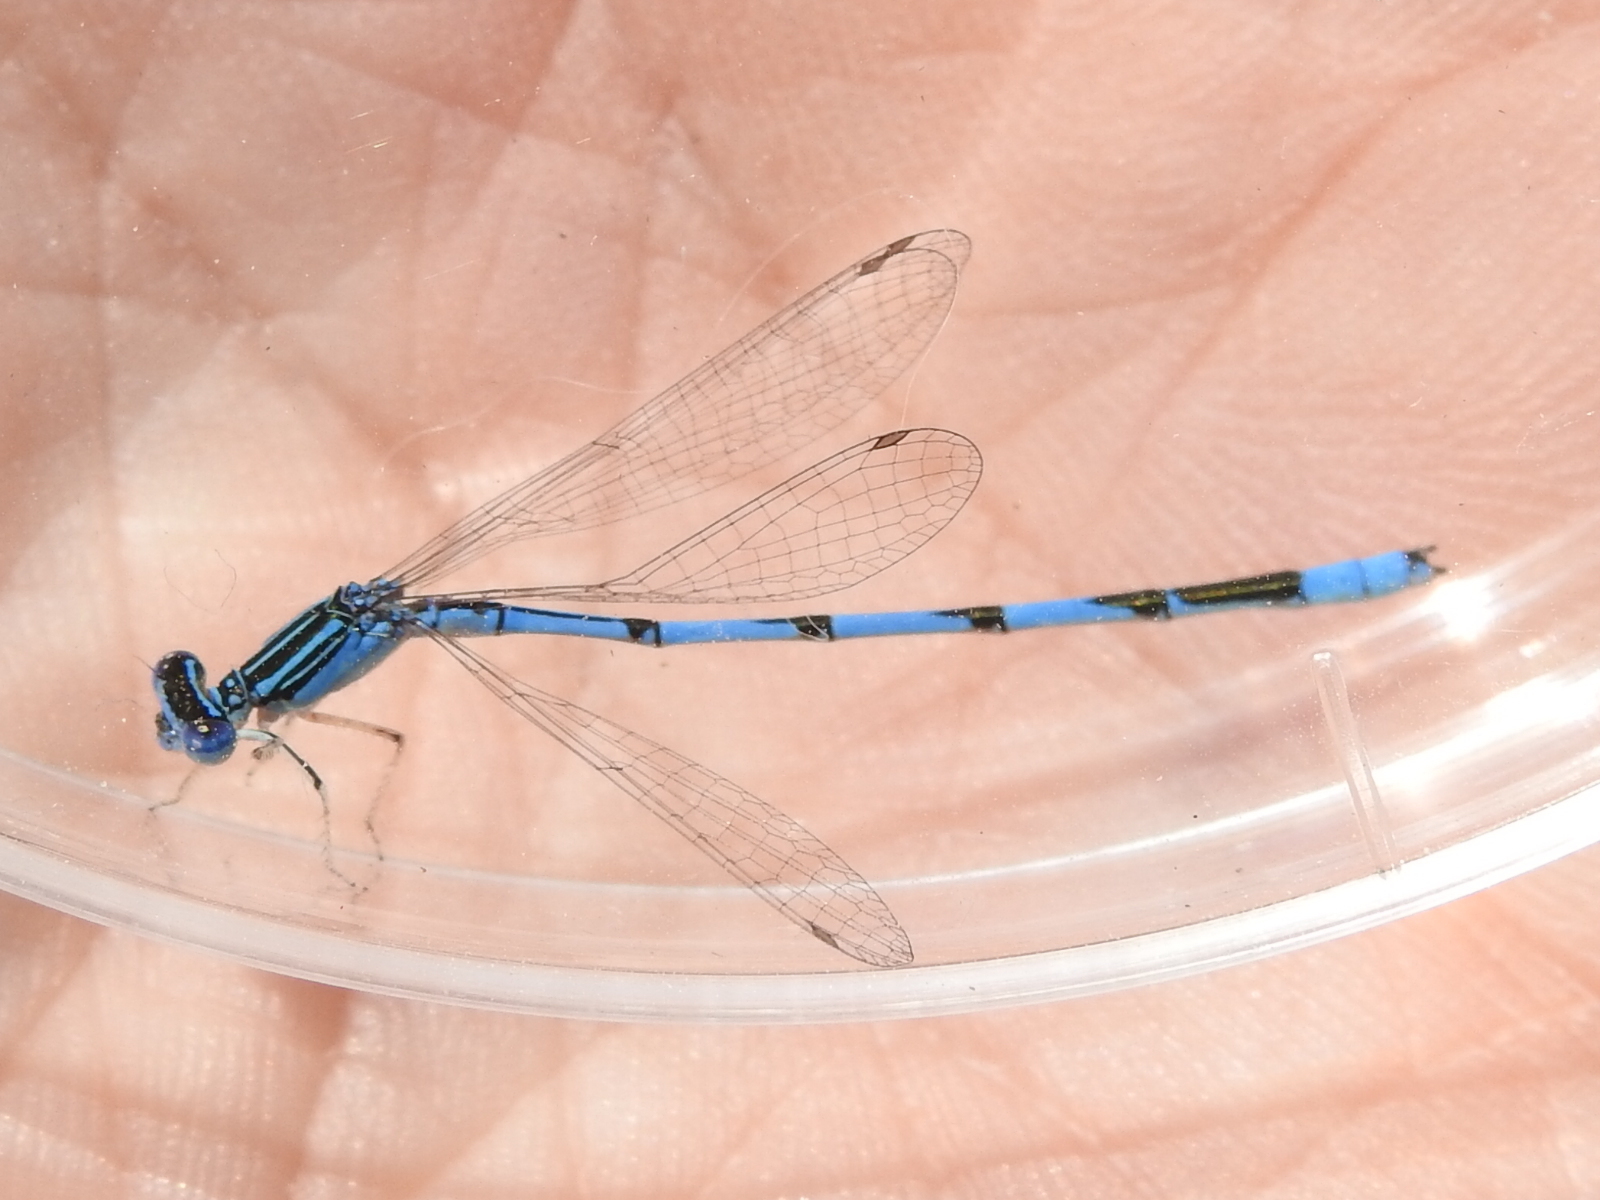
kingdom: Animalia
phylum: Arthropoda
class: Insecta
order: Odonata
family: Coenagrionidae
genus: Enallagma
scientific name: Enallagma basidens
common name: Double-striped bluet
